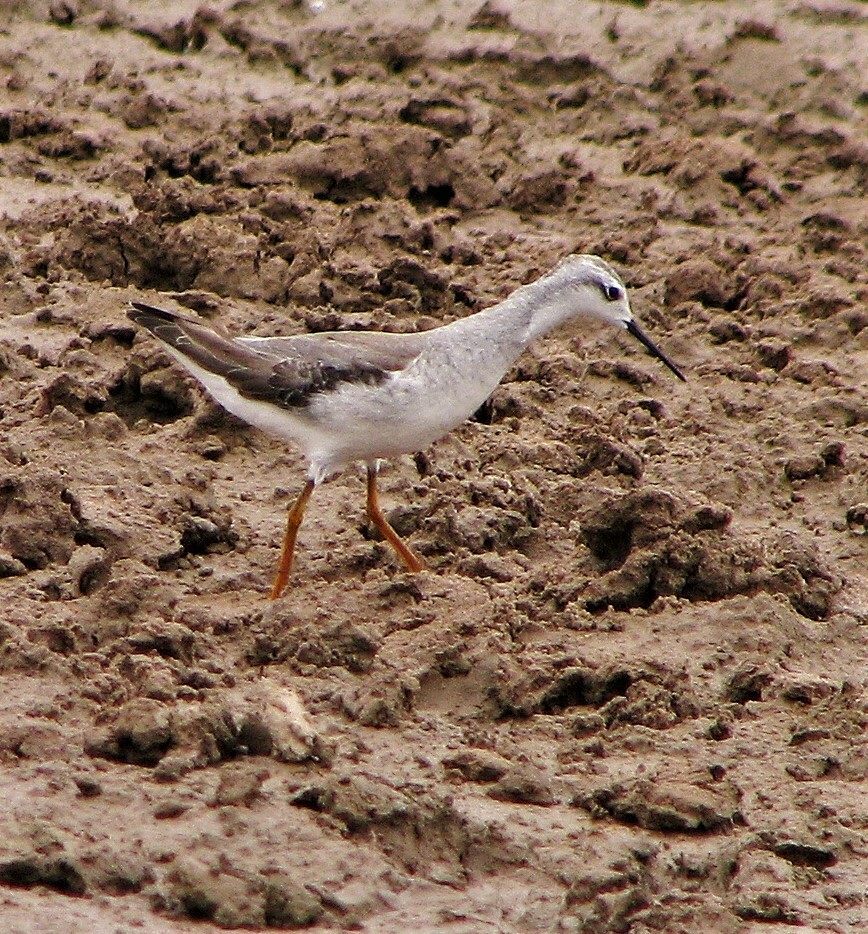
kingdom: Animalia
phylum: Chordata
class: Aves
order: Charadriiformes
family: Scolopacidae
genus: Phalaropus
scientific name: Phalaropus tricolor
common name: Wilson's phalarope
